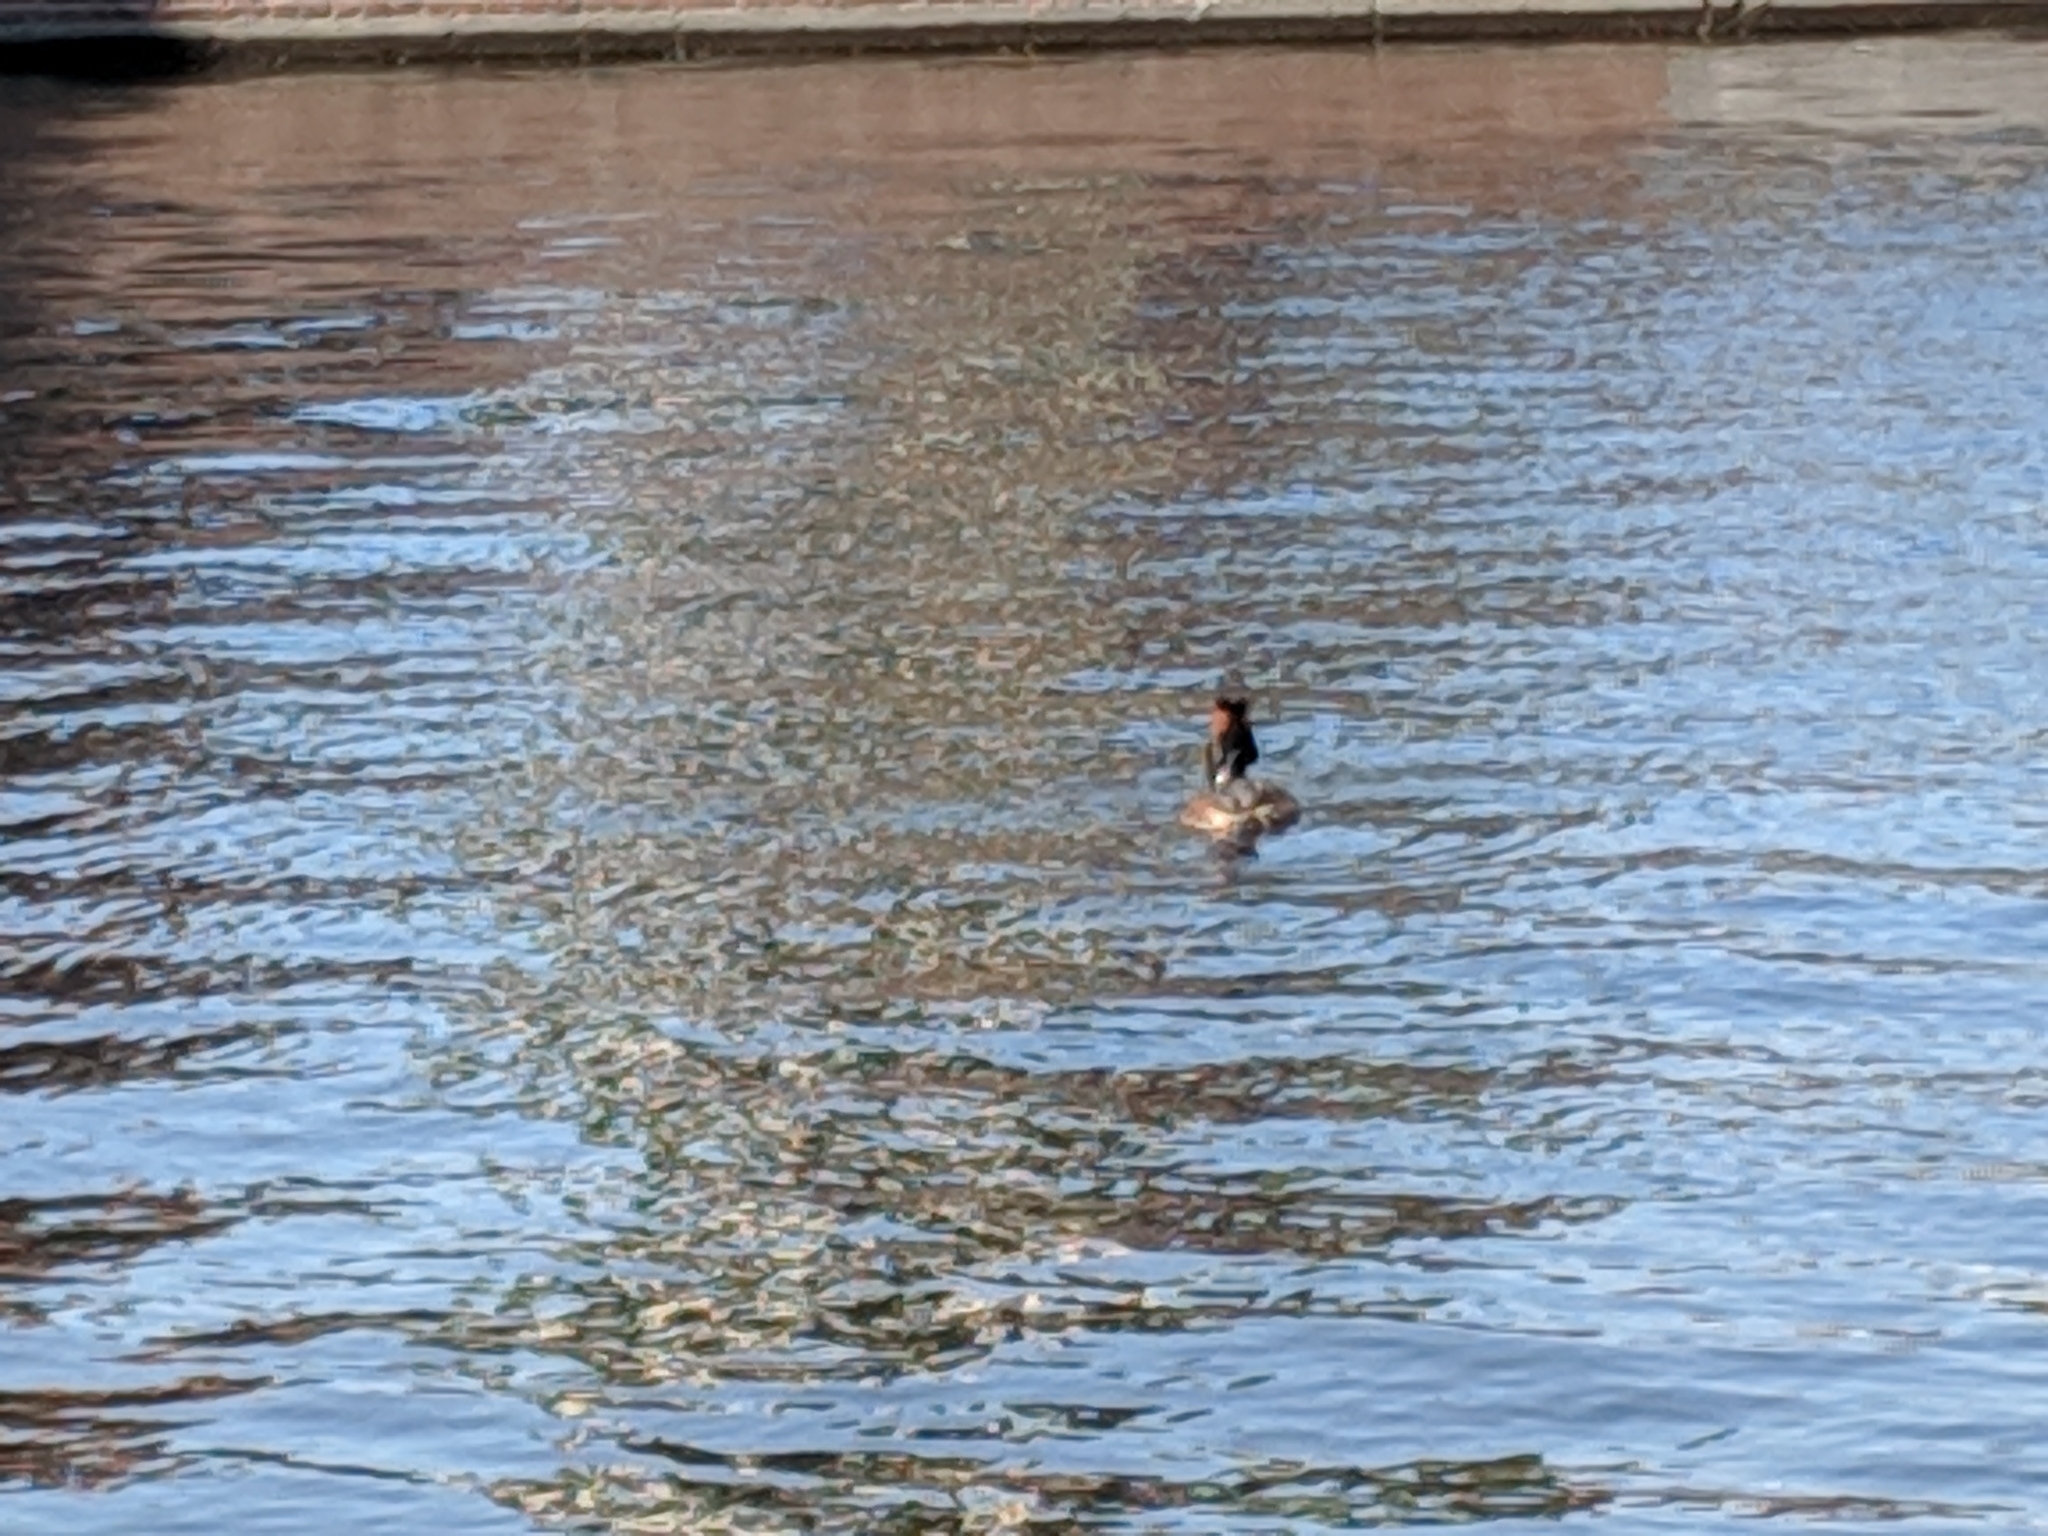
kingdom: Animalia
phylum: Chordata
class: Aves
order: Podicipediformes
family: Podicipedidae
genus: Podiceps
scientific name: Podiceps cristatus
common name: Great crested grebe
